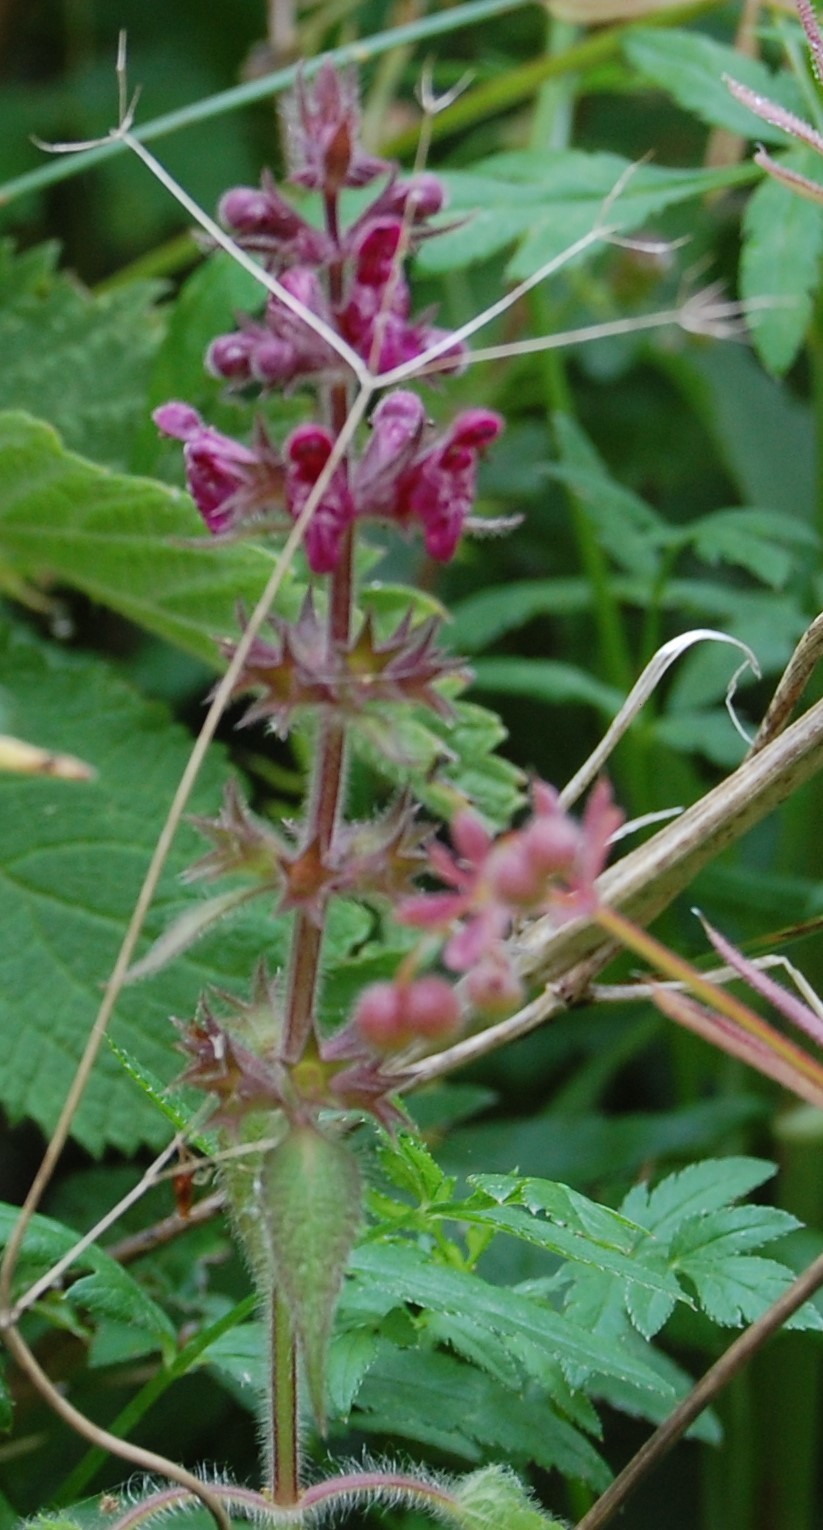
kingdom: Plantae
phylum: Tracheophyta
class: Magnoliopsida
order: Lamiales
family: Lamiaceae
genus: Stachys
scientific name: Stachys sylvatica
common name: Hedge woundwort
